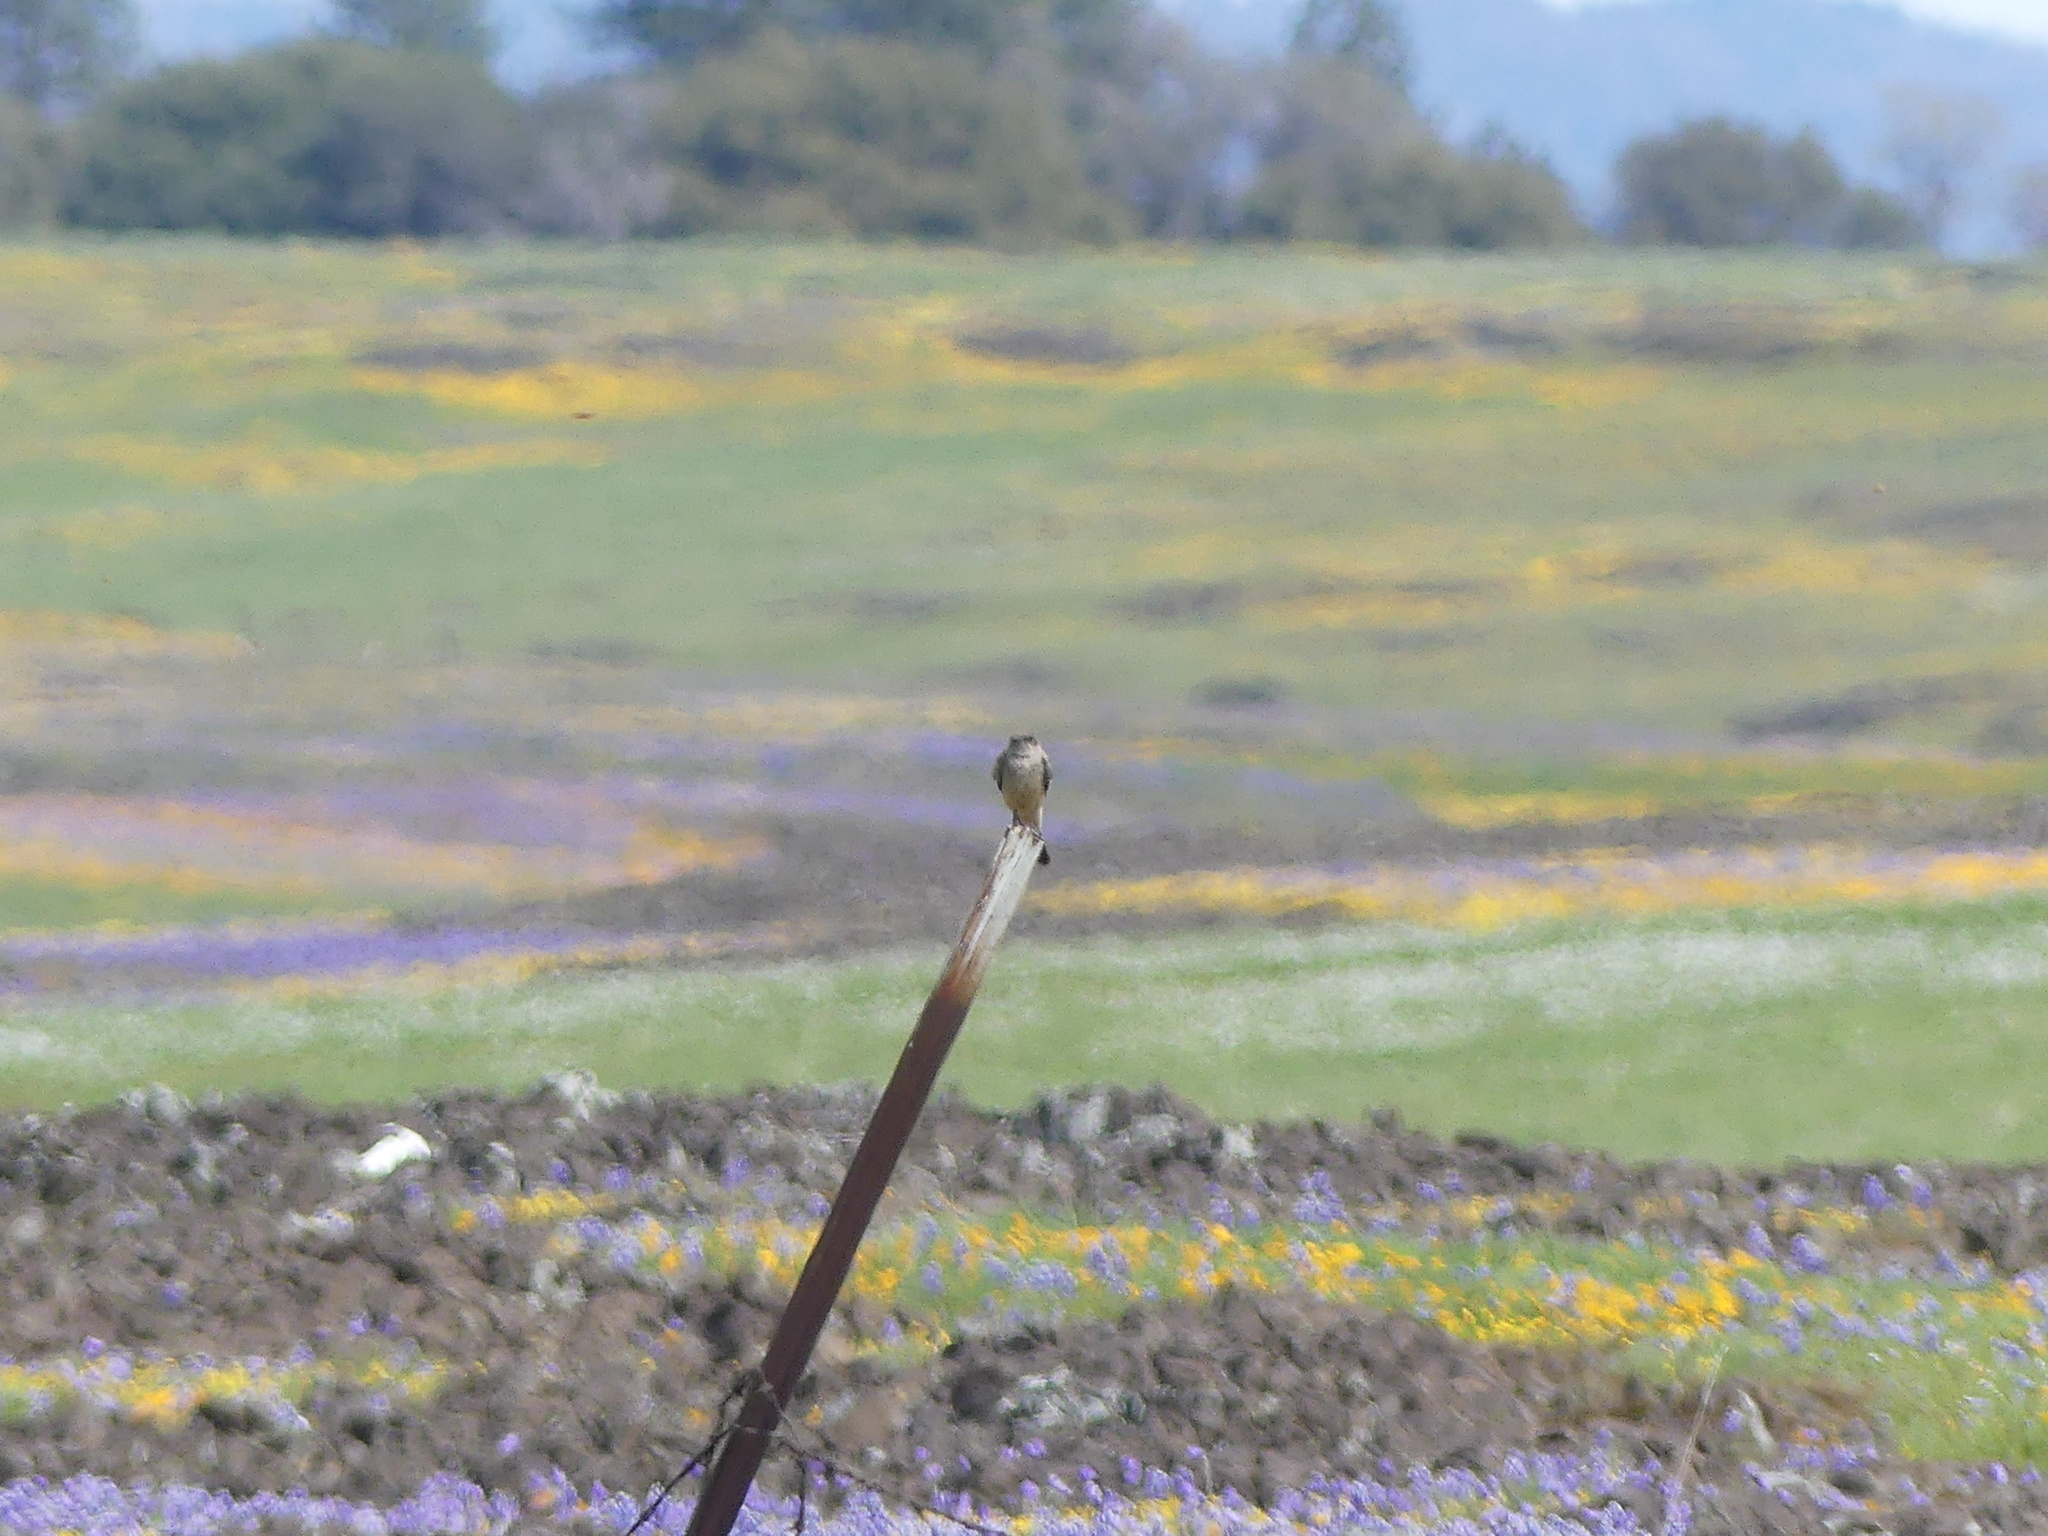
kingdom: Animalia
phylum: Chordata
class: Aves
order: Passeriformes
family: Tyrannidae
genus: Sayornis
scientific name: Sayornis saya
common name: Say's phoebe
